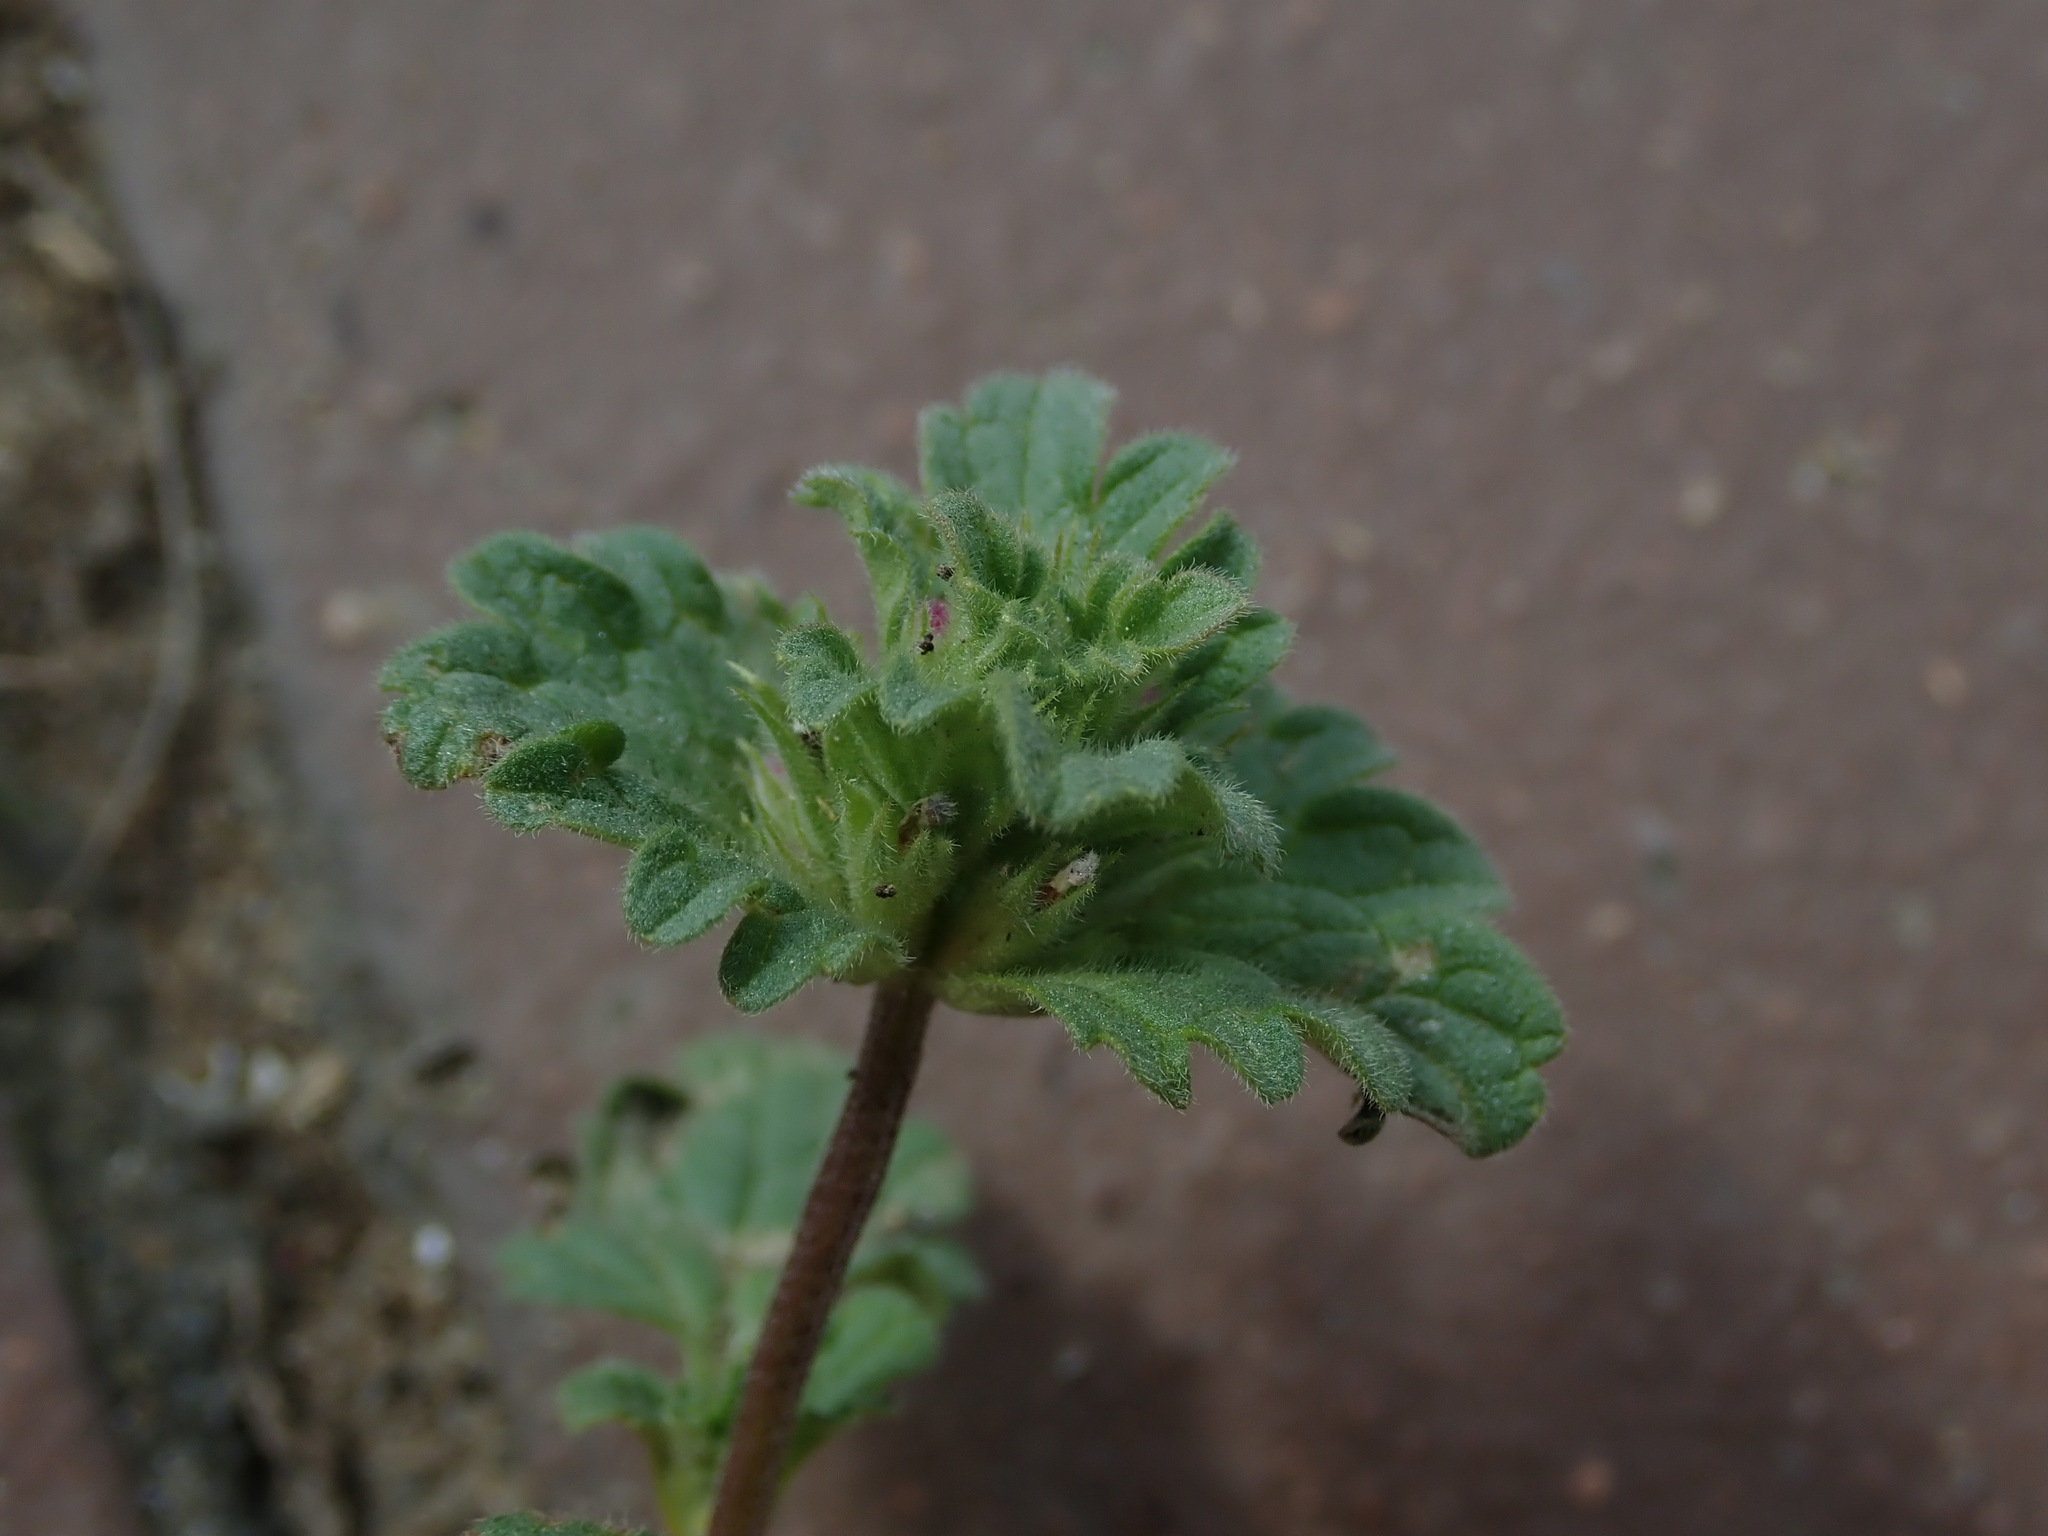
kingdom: Plantae
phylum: Tracheophyta
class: Magnoliopsida
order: Lamiales
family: Lamiaceae
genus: Lamium
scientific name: Lamium amplexicaule
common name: Henbit dead-nettle
